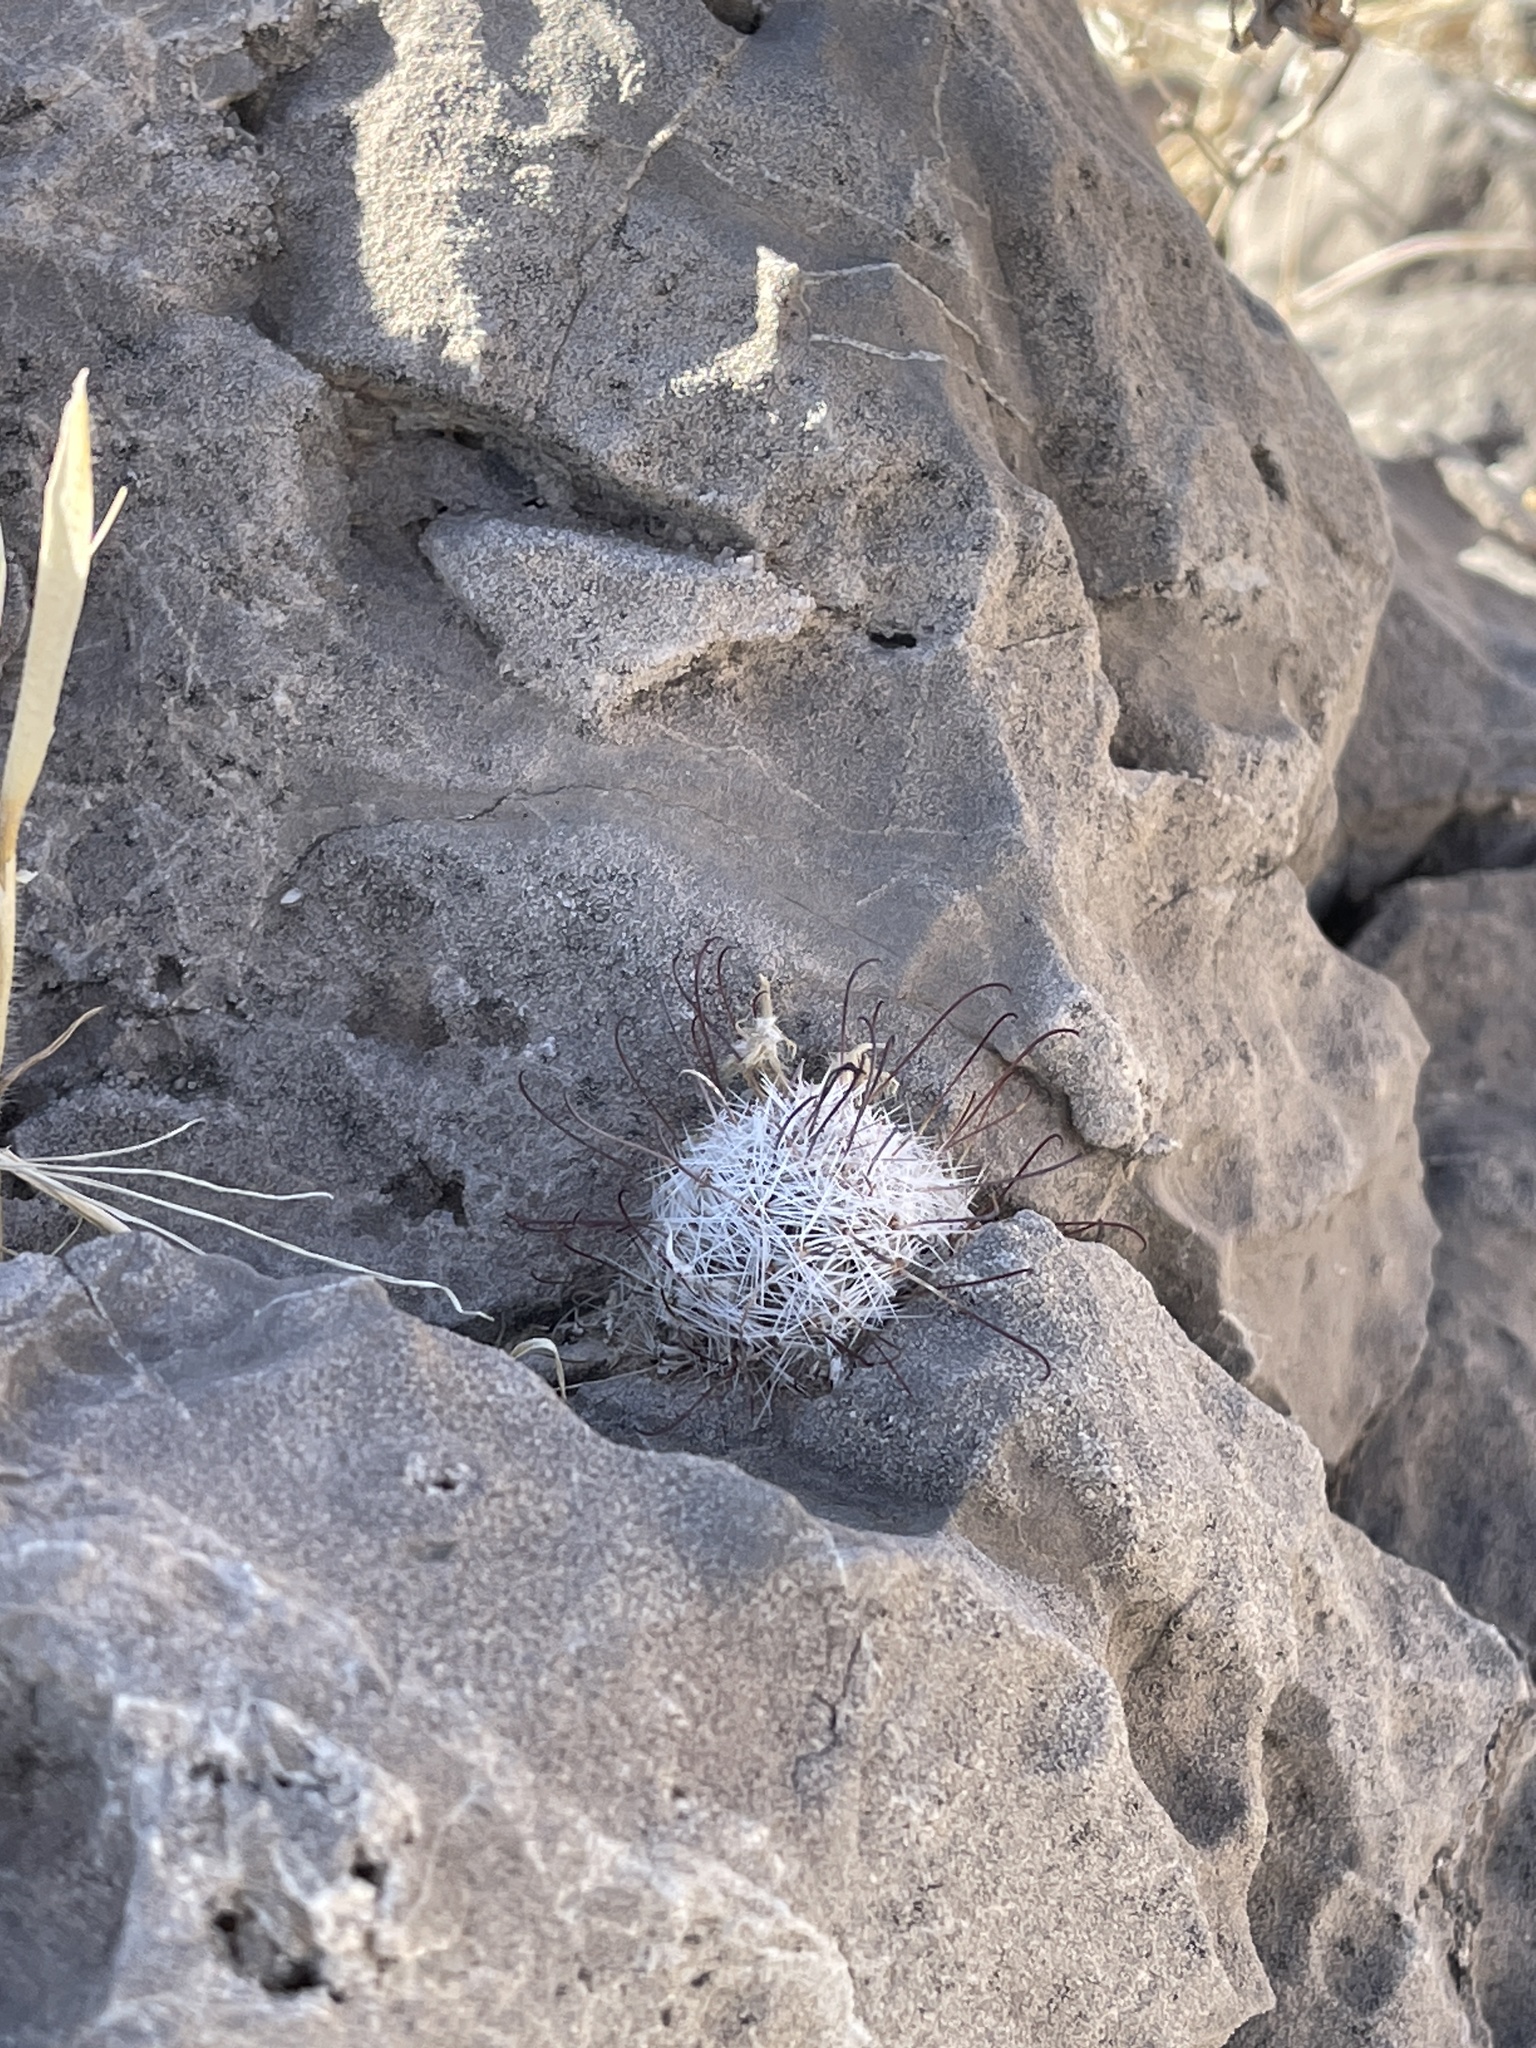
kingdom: Plantae
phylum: Tracheophyta
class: Magnoliopsida
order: Caryophyllales
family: Cactaceae
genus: Cochemiea
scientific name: Cochemiea grahamii
